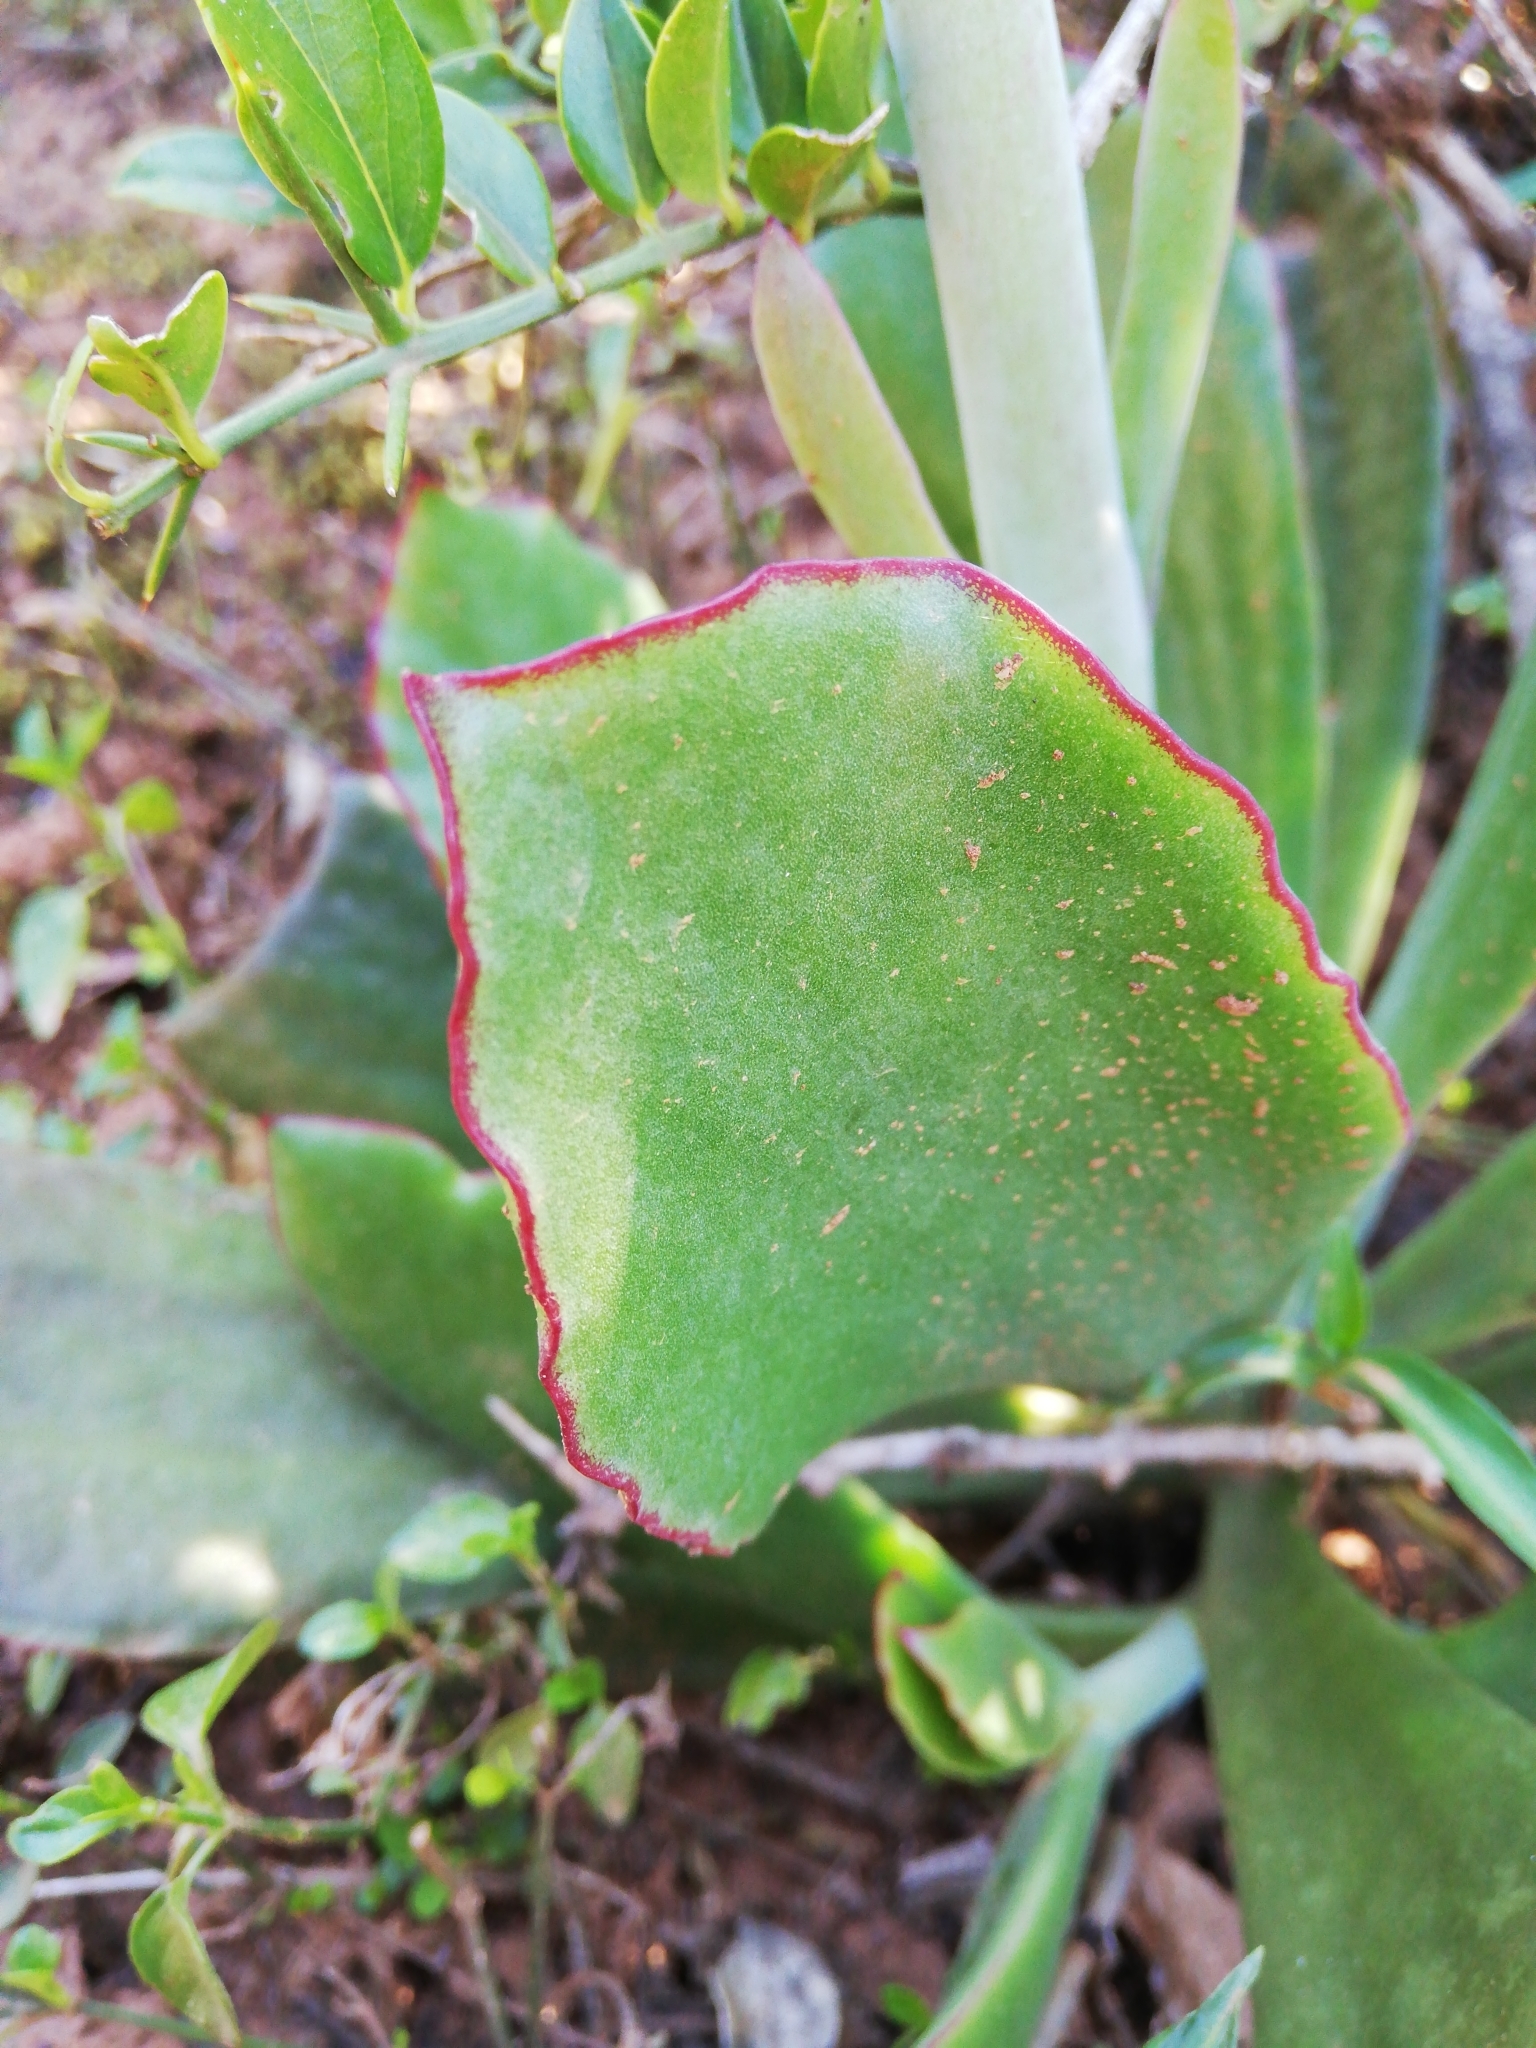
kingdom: Plantae
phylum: Tracheophyta
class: Magnoliopsida
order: Saxifragales
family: Crassulaceae
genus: Cotyledon
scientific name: Cotyledon orbiculata
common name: Pig's ear
